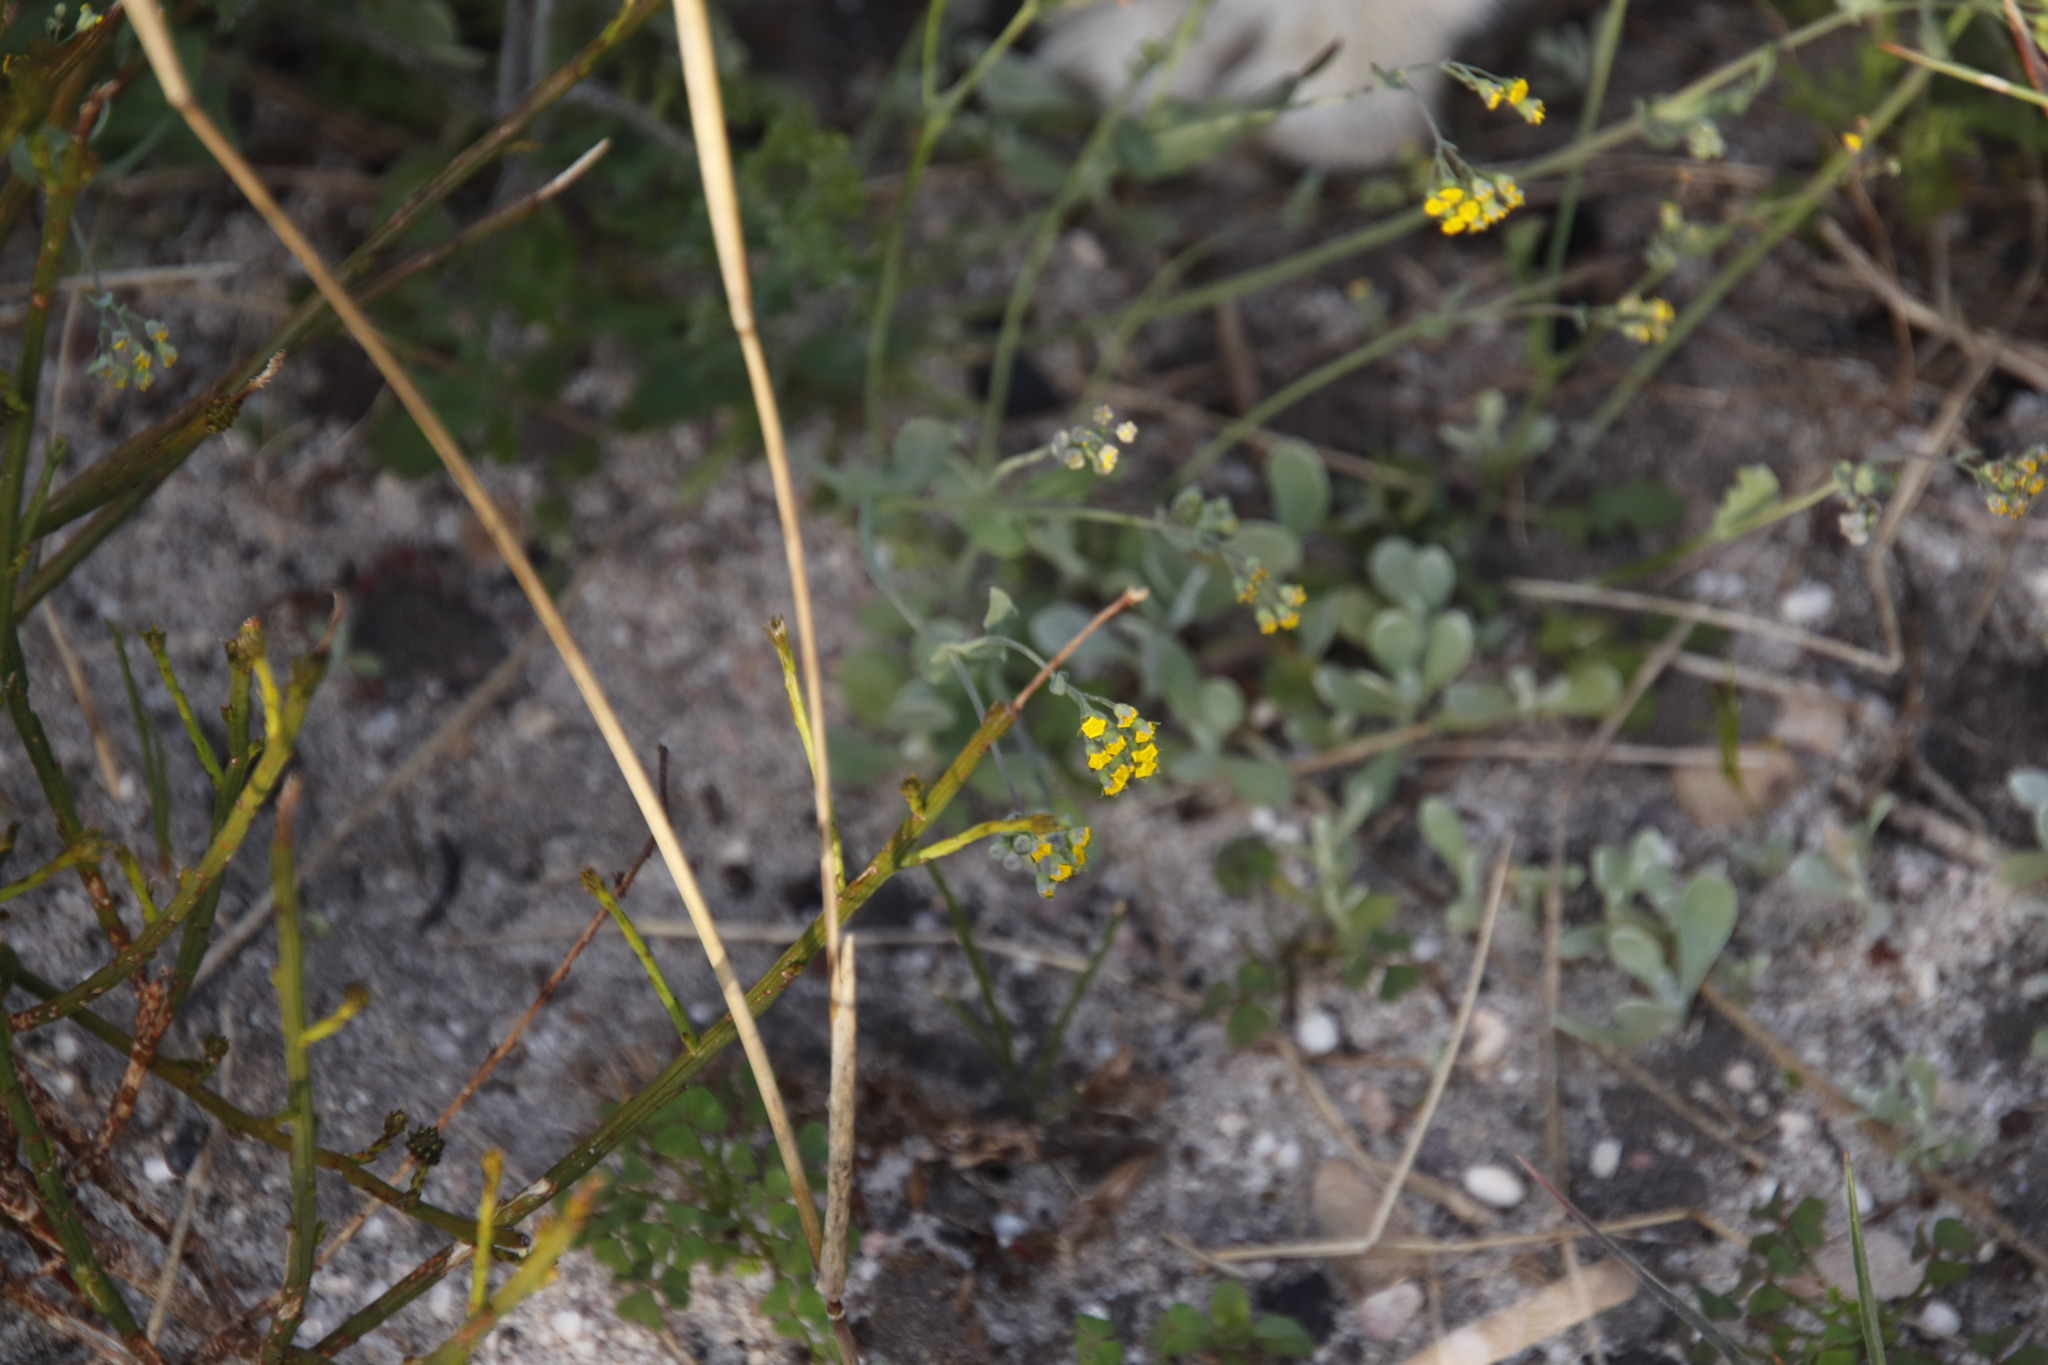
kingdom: Plantae
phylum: Tracheophyta
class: Magnoliopsida
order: Asterales
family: Asteraceae
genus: Gymnodiscus
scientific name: Gymnodiscus capillaris
